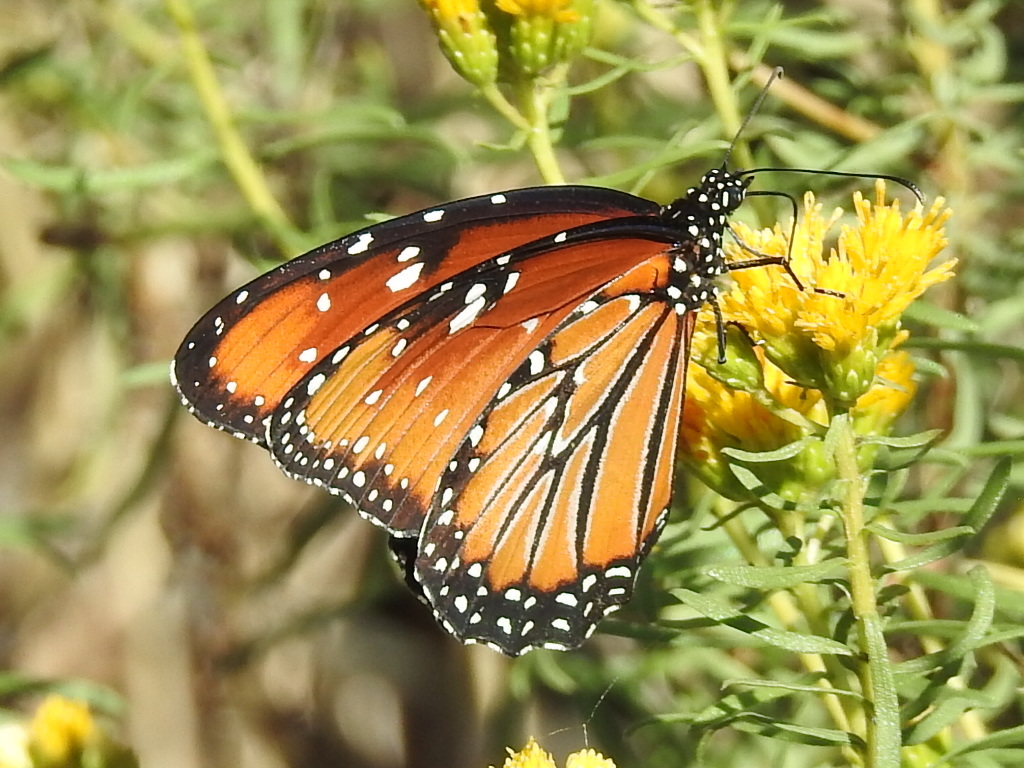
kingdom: Animalia
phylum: Arthropoda
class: Insecta
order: Lepidoptera
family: Nymphalidae
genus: Danaus
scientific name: Danaus gilippus
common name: Queen
